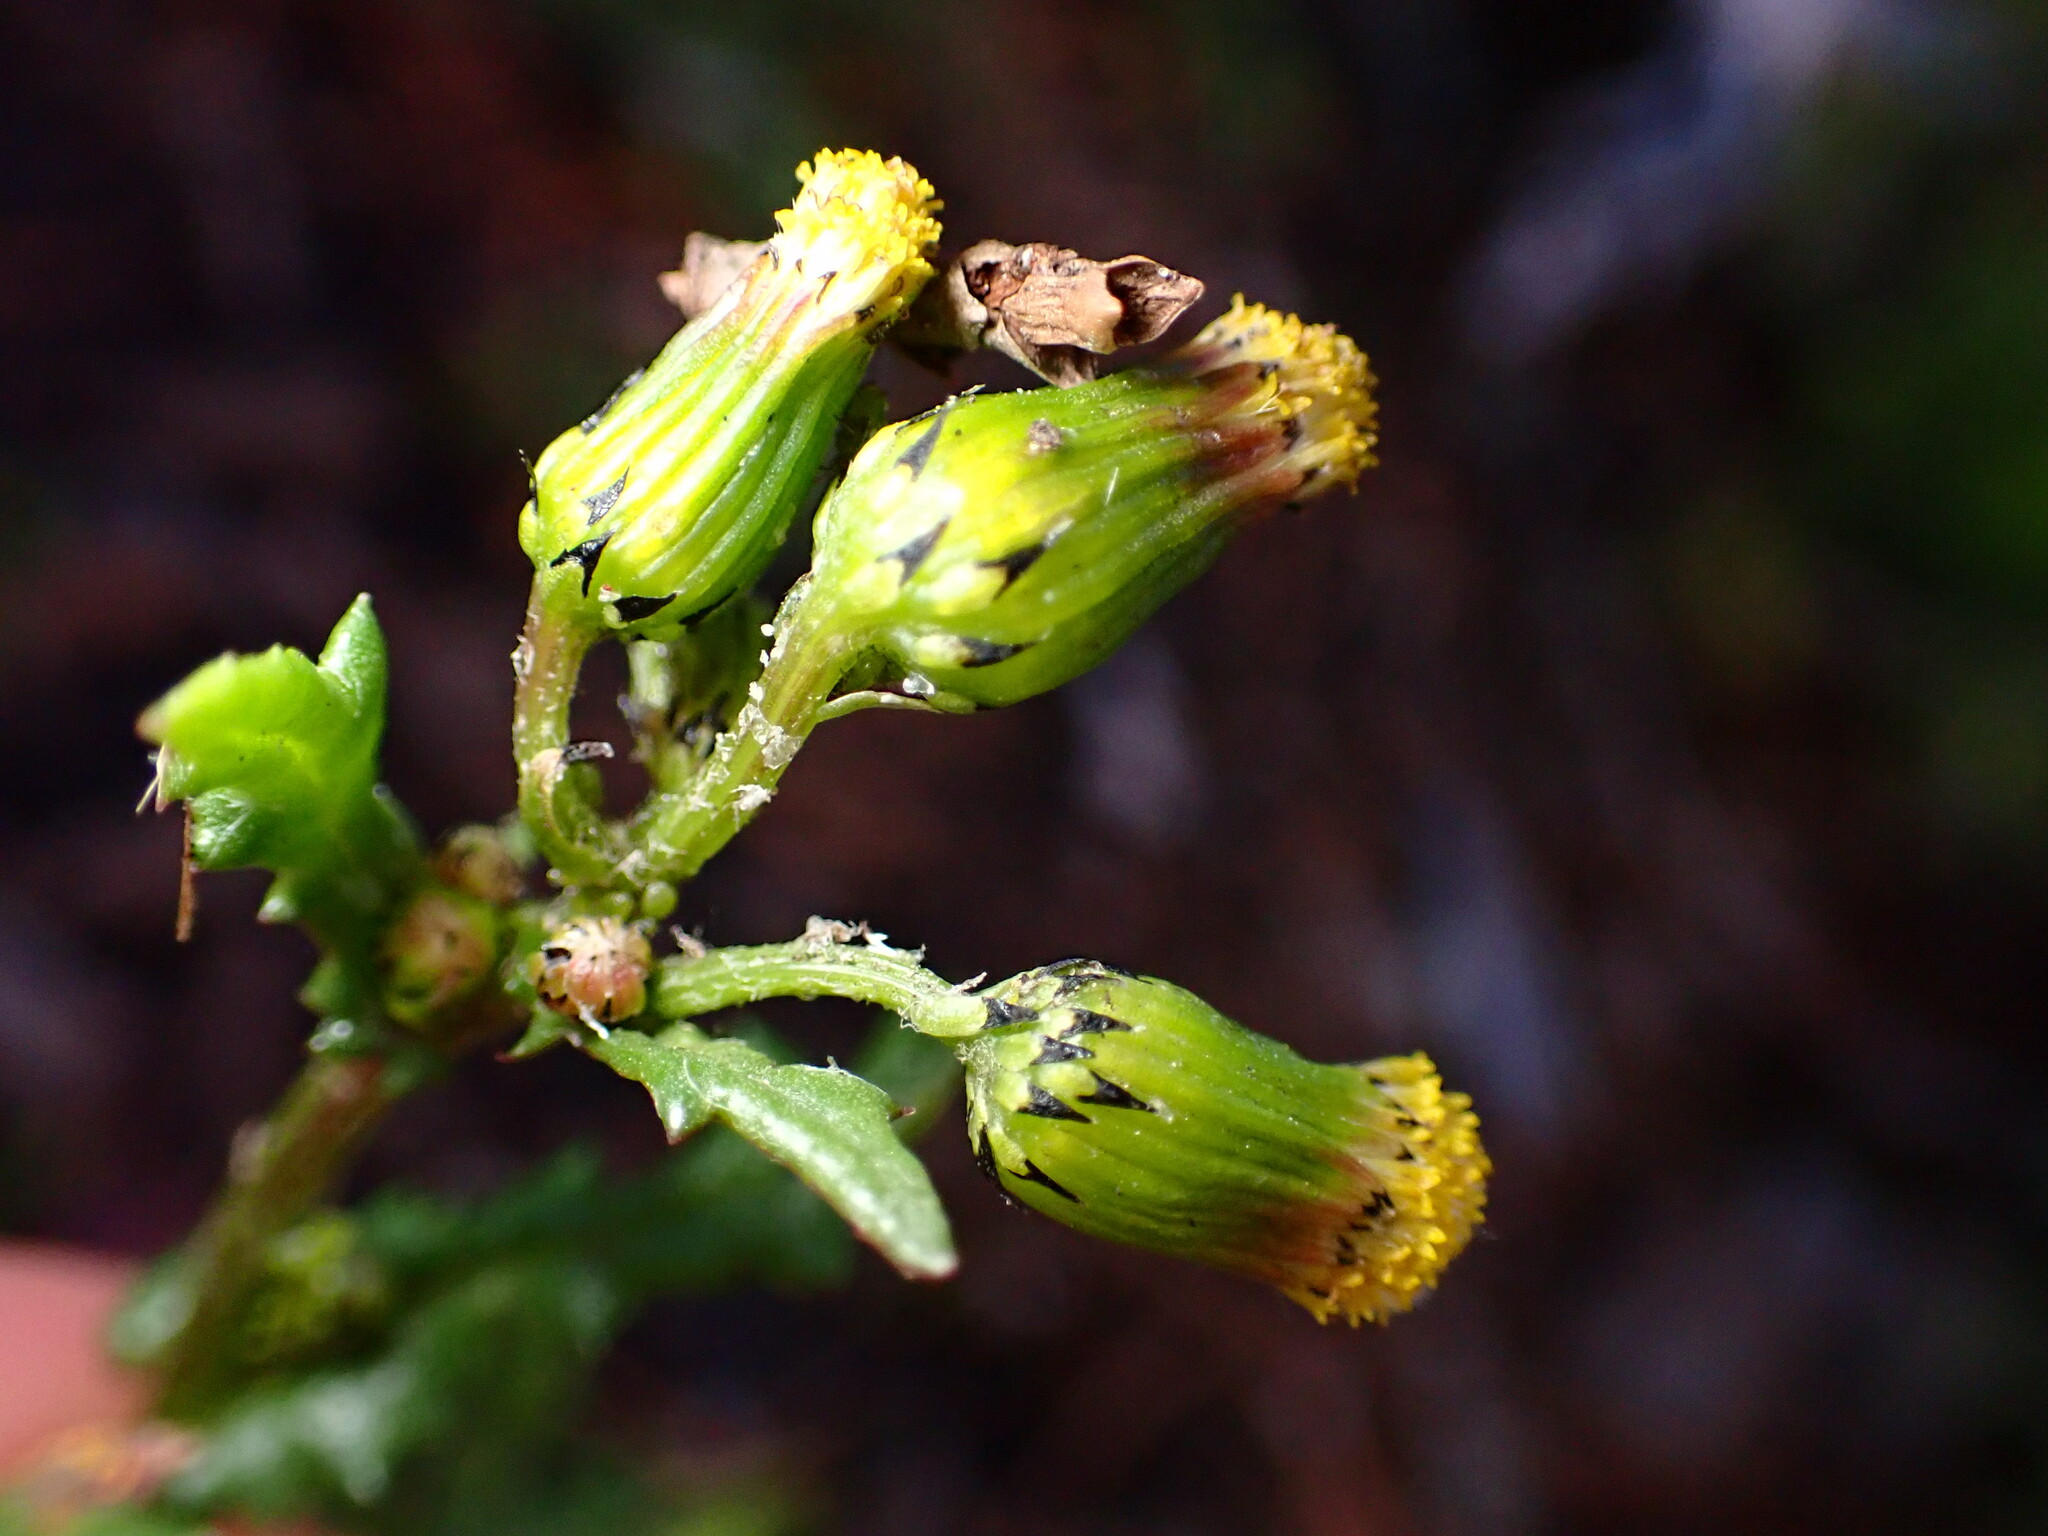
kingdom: Plantae
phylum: Tracheophyta
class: Magnoliopsida
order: Asterales
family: Asteraceae
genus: Senecio
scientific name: Senecio vulgaris
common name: Old-man-in-the-spring
